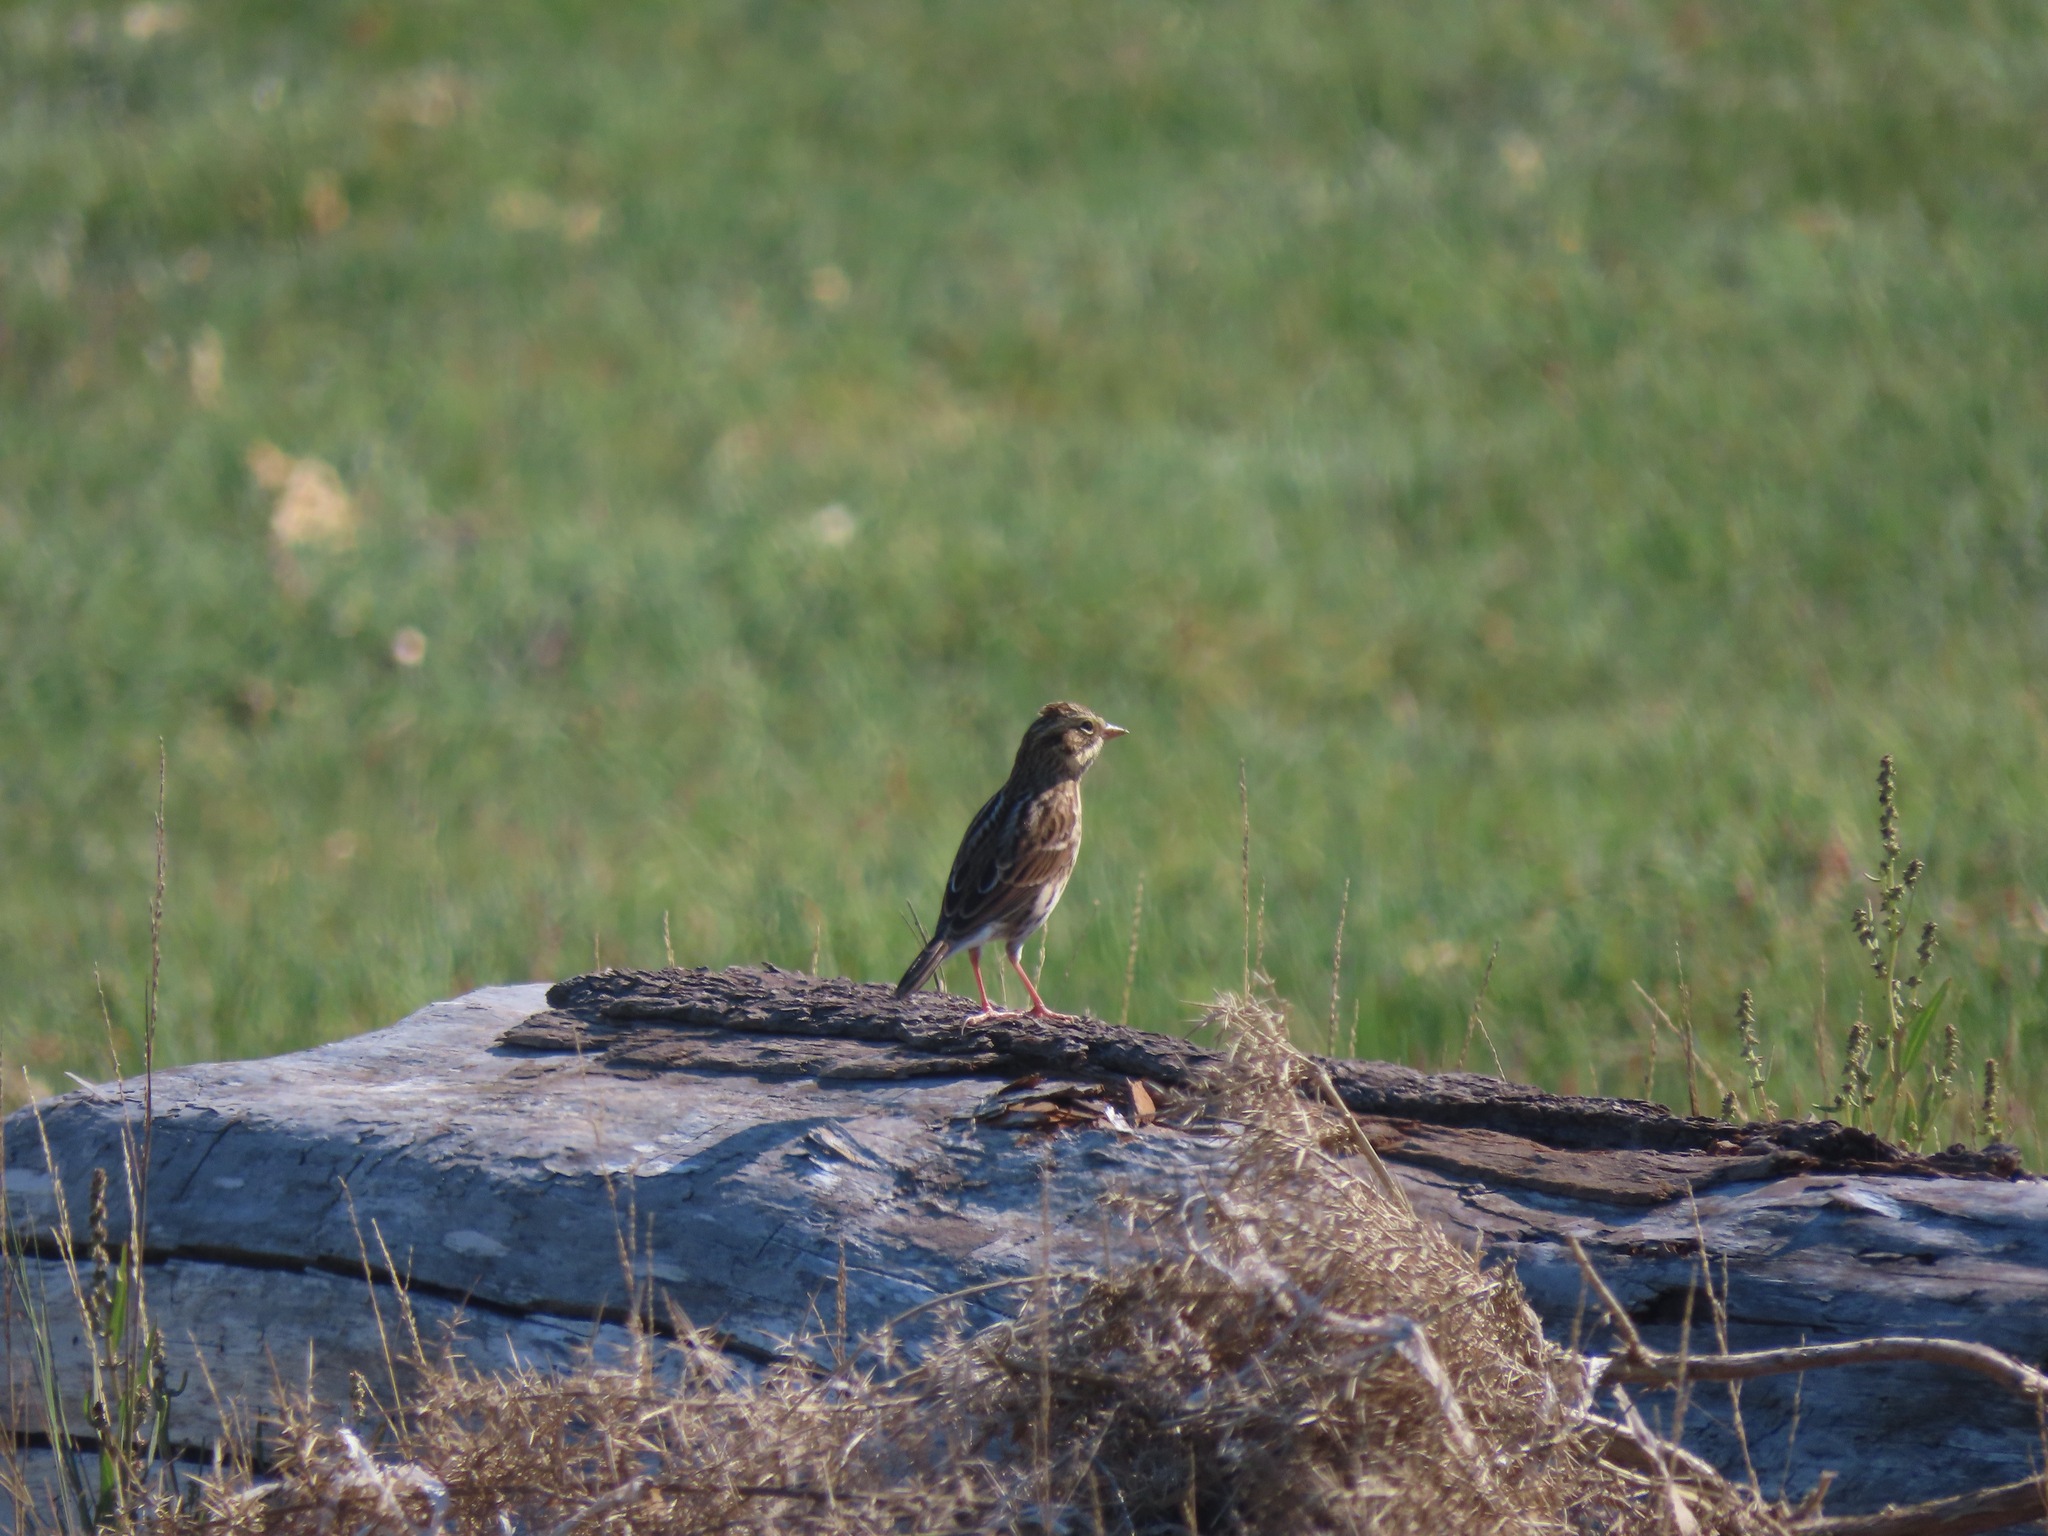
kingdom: Animalia
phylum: Chordata
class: Aves
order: Passeriformes
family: Passerellidae
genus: Passerculus
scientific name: Passerculus sandwichensis
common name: Savannah sparrow
